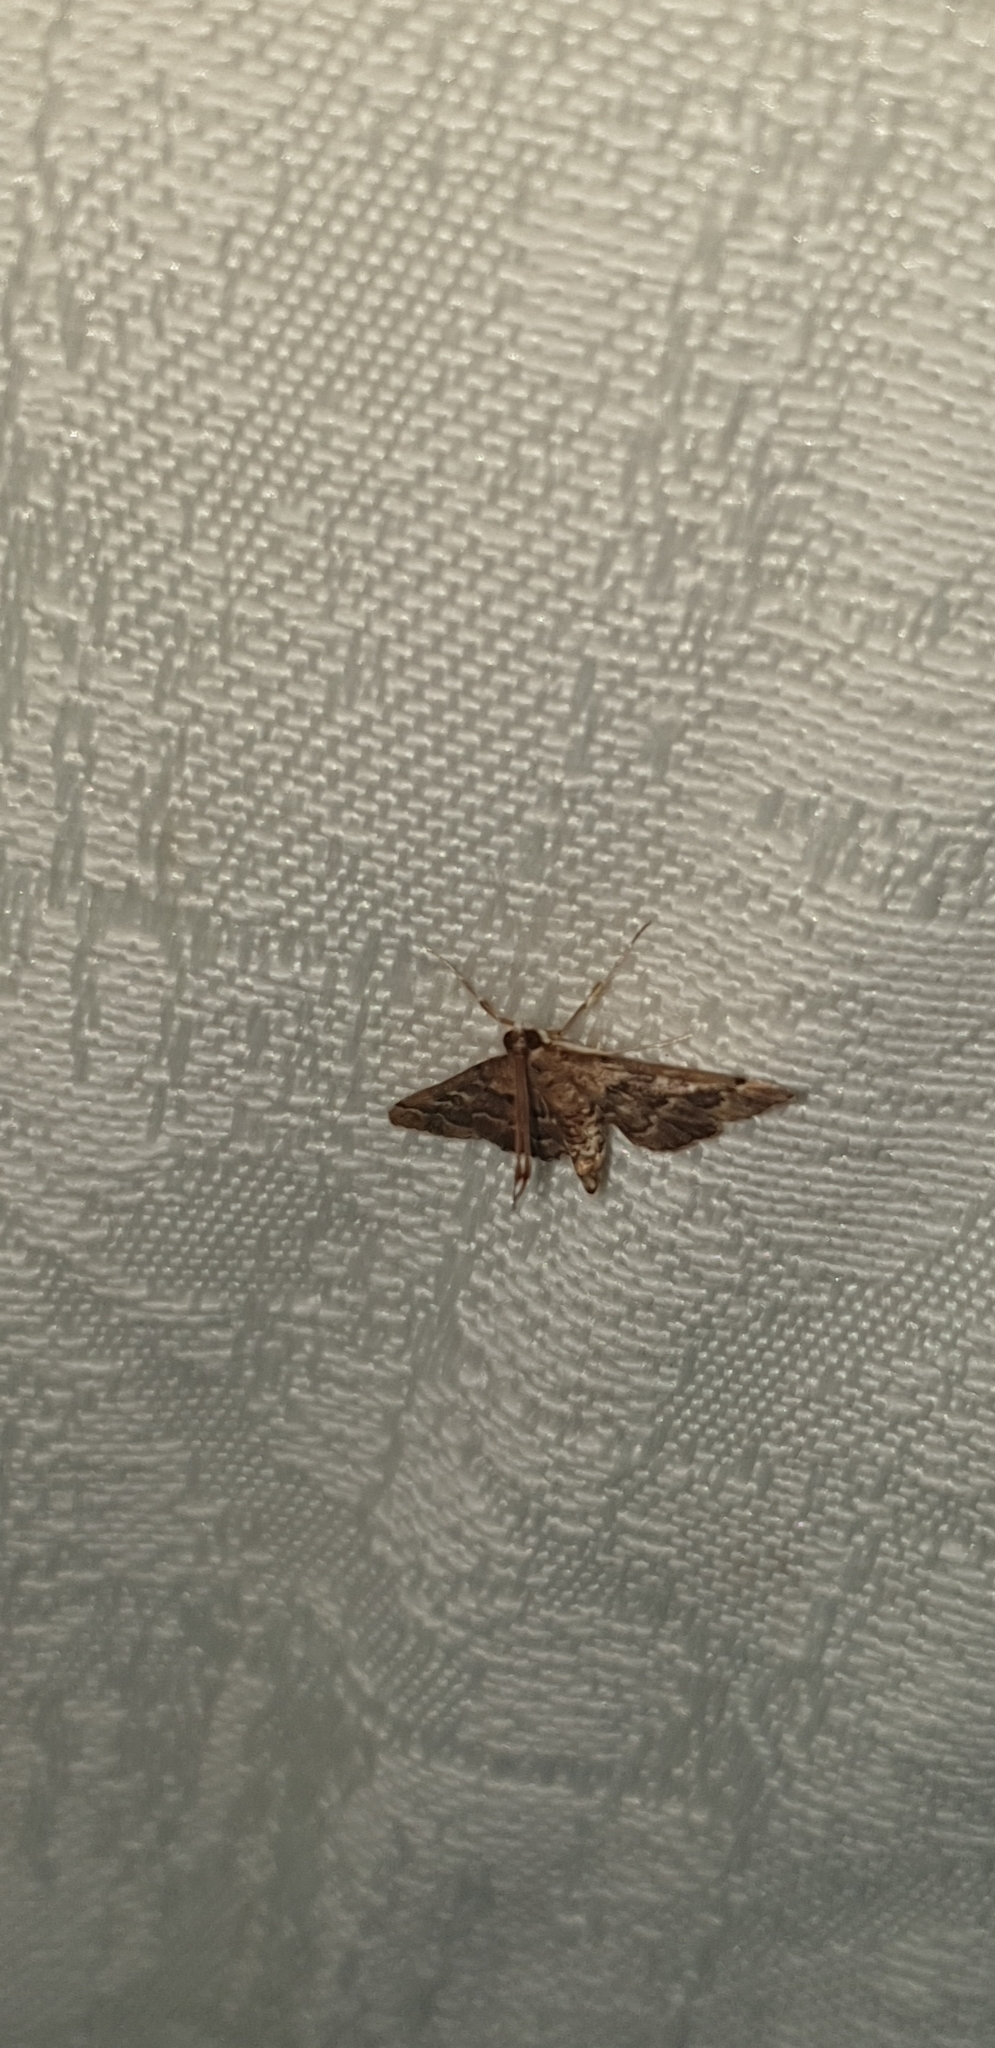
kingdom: Animalia
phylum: Arthropoda
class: Insecta
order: Lepidoptera
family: Crambidae
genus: Nacoleia
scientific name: Nacoleia rhoeoalis
